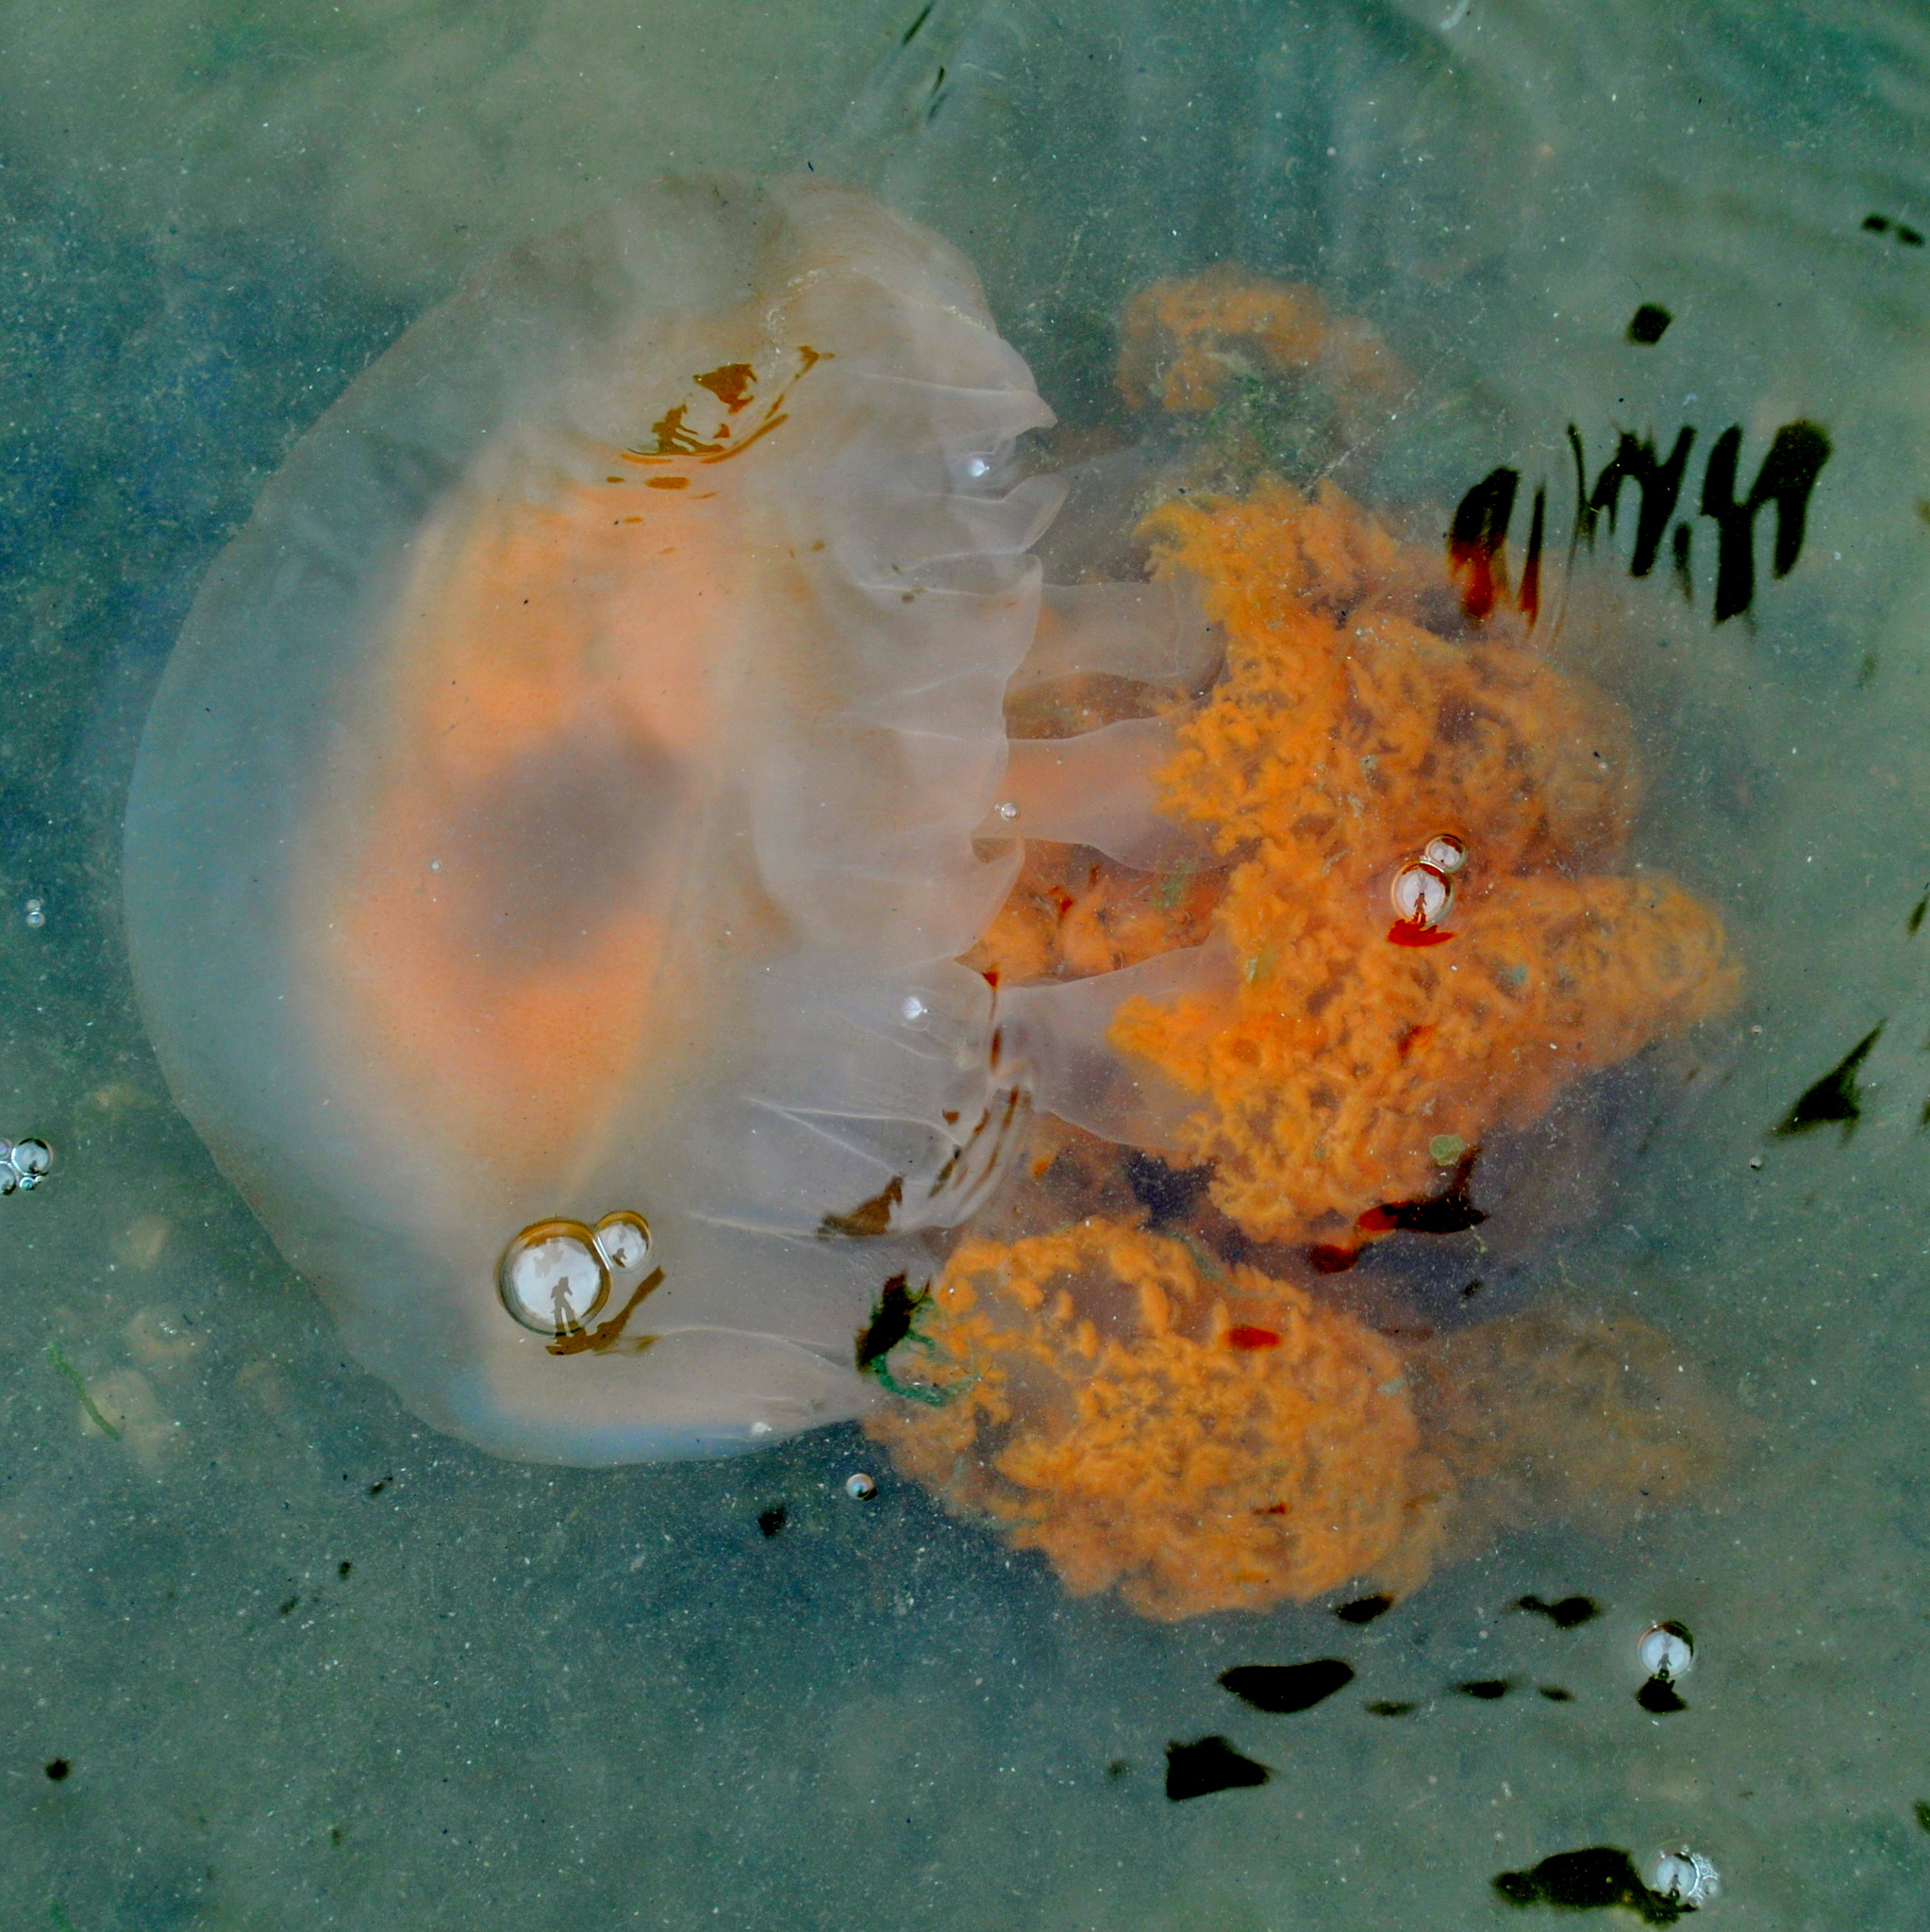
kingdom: Animalia
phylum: Cnidaria
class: Scyphozoa
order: Rhizostomeae
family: Lychnorhizidae
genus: Lychnorhiza
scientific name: Lychnorhiza lucerna
